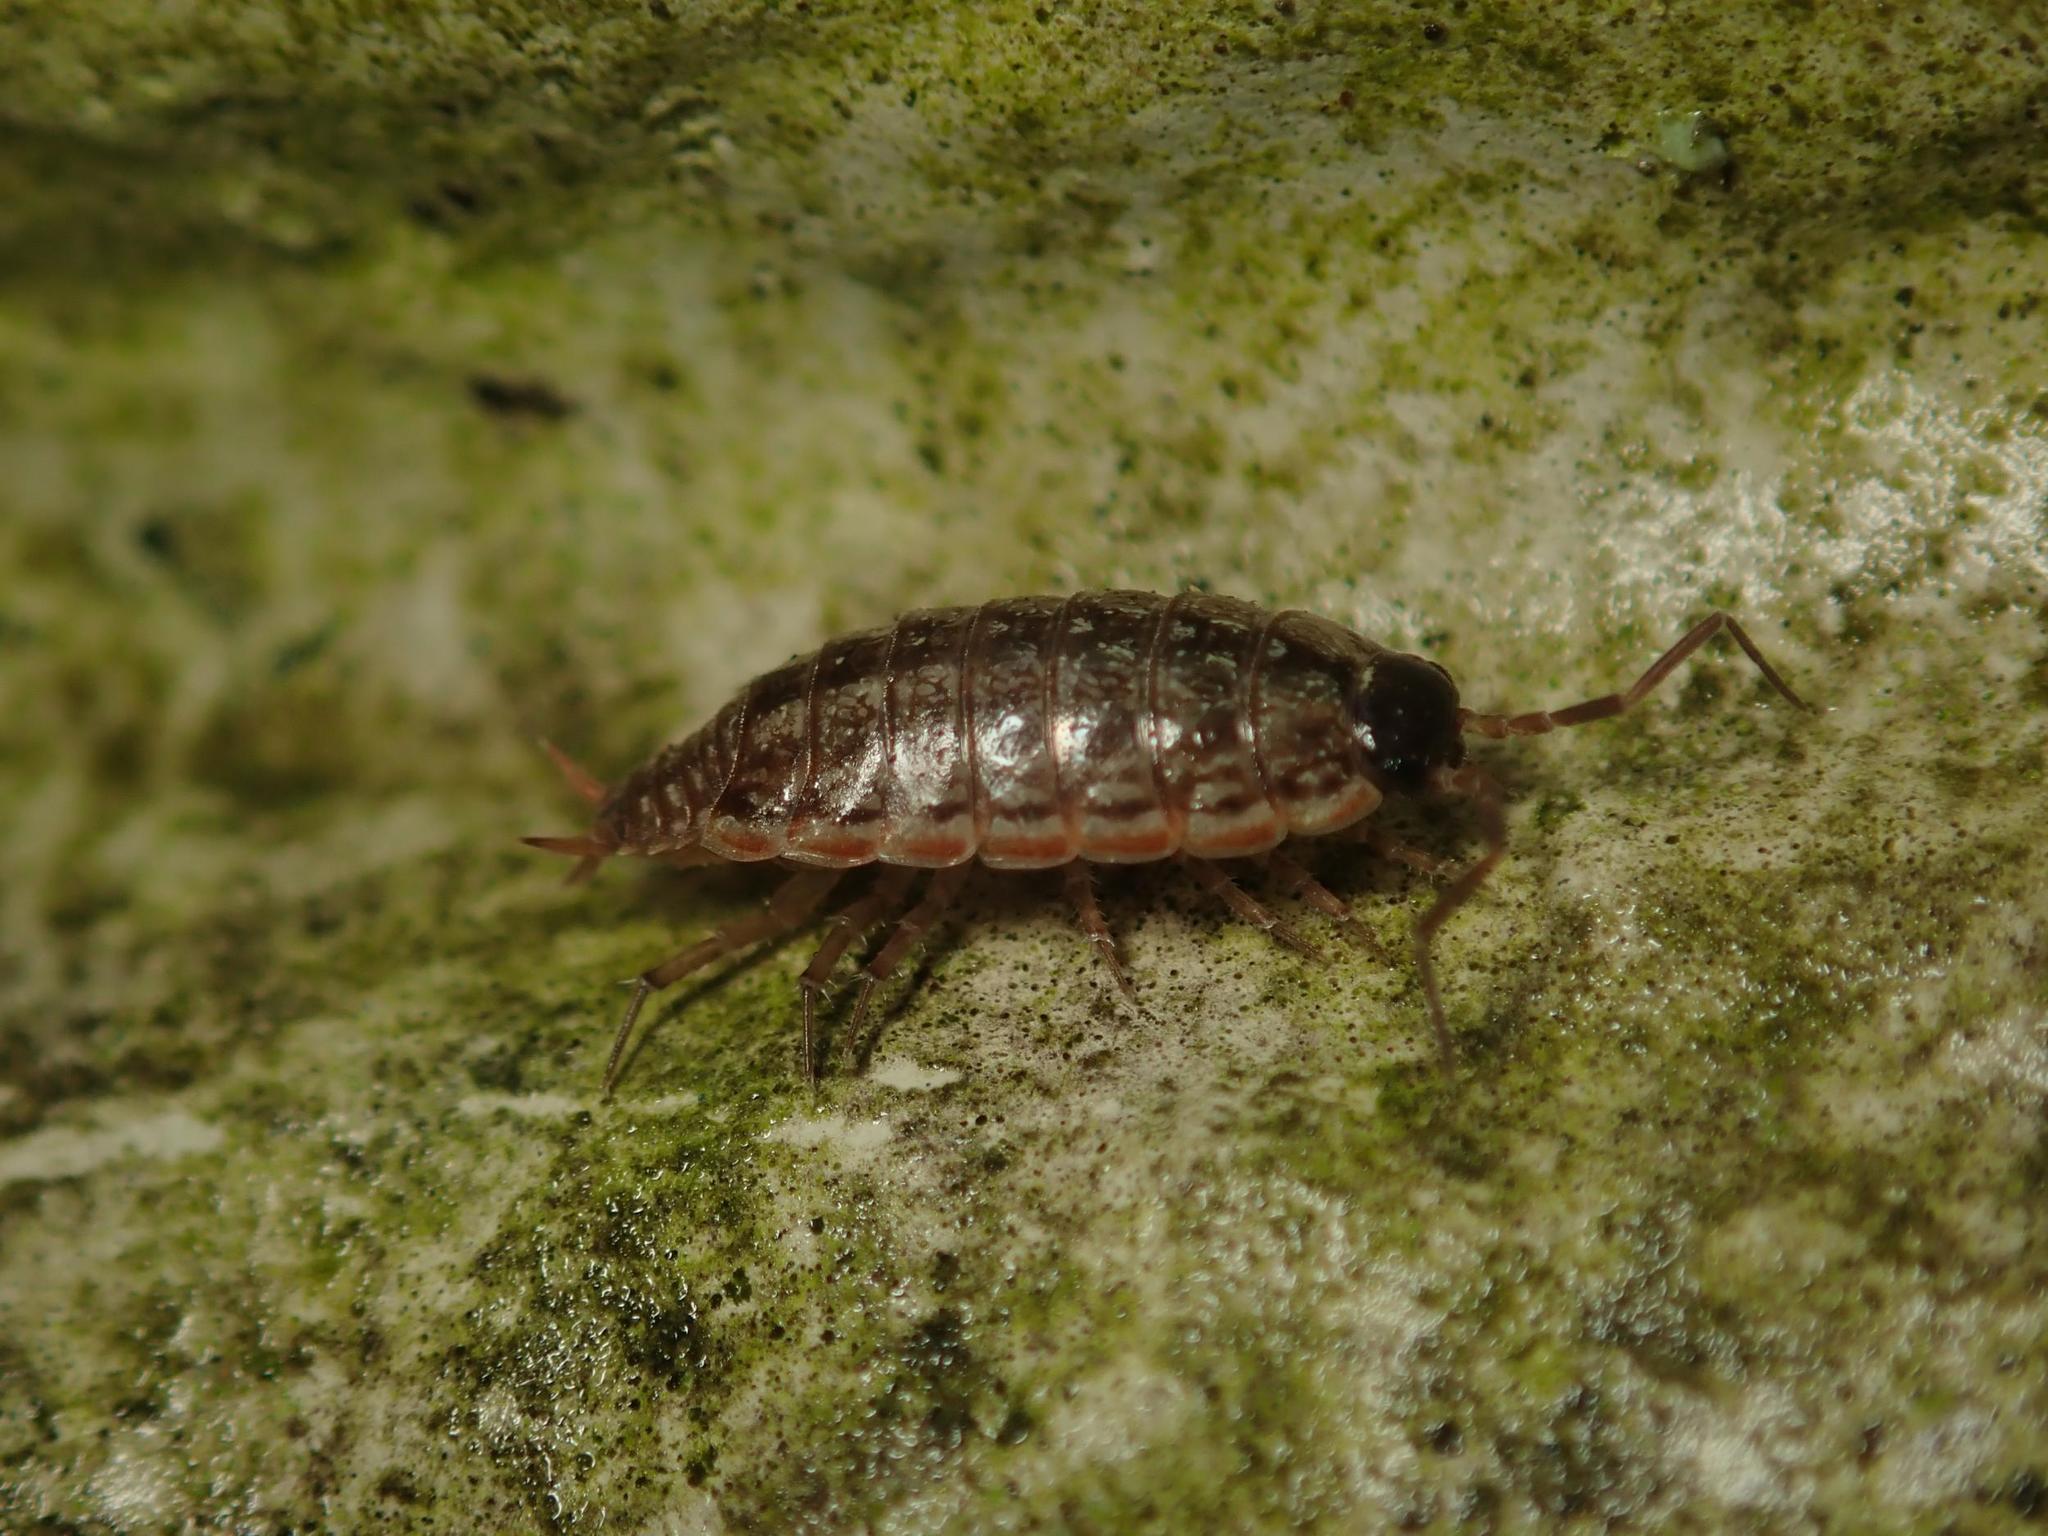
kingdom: Animalia
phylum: Arthropoda
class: Malacostraca
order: Isopoda
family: Philosciidae
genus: Philoscia
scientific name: Philoscia muscorum
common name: Common striped woodlouse
